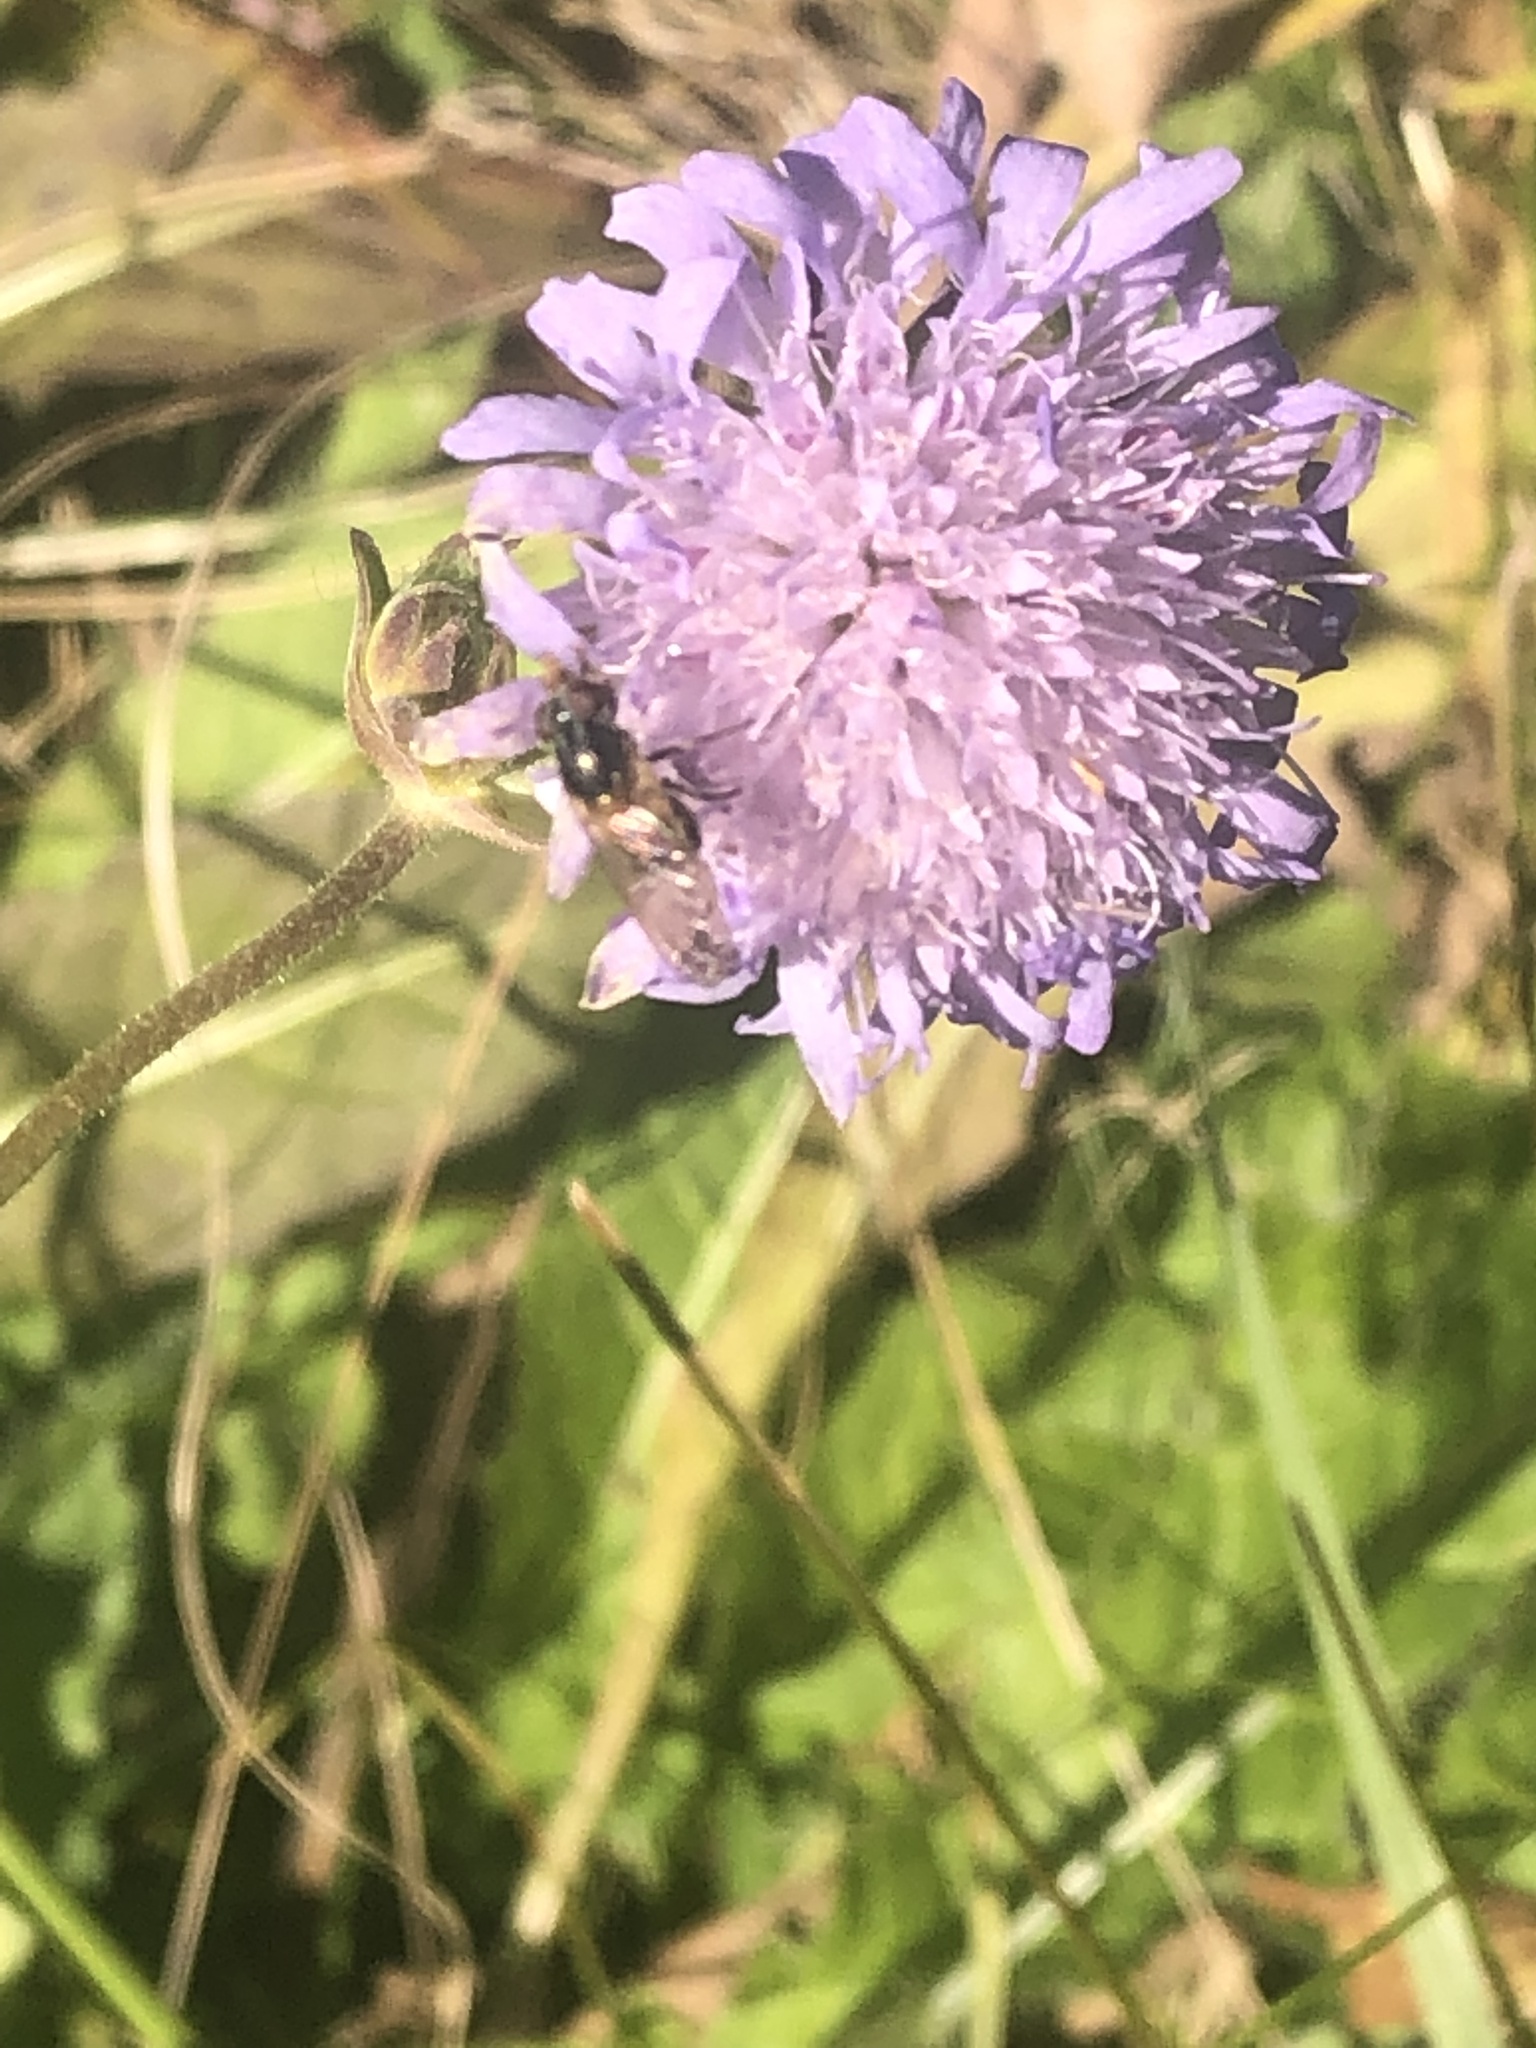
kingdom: Animalia
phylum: Arthropoda
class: Insecta
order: Diptera
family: Syrphidae
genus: Rhingia
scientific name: Rhingia nasica
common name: American snout fly
